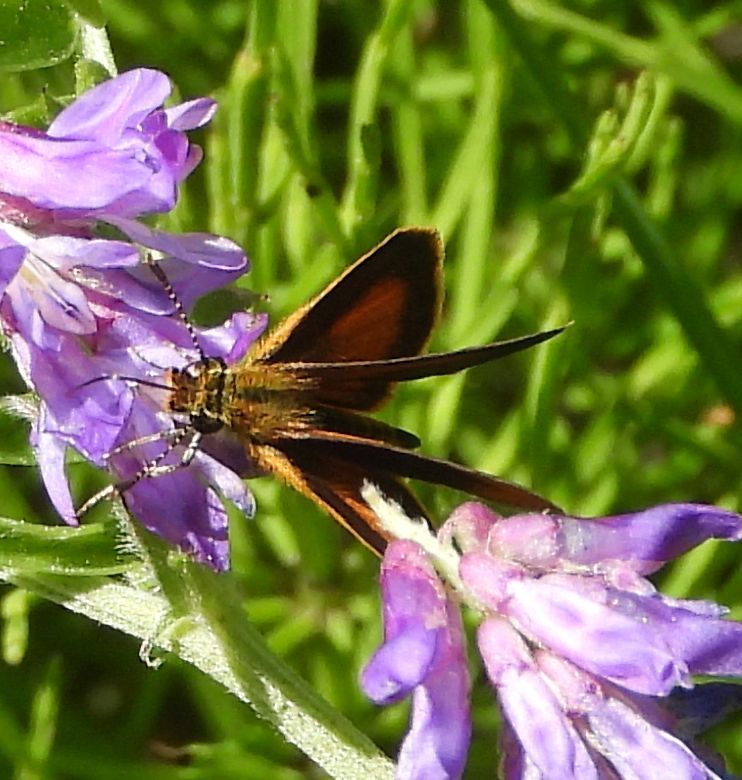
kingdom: Animalia
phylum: Arthropoda
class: Insecta
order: Lepidoptera
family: Hesperiidae
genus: Ancyloxypha
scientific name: Ancyloxypha numitor
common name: Least skipper
